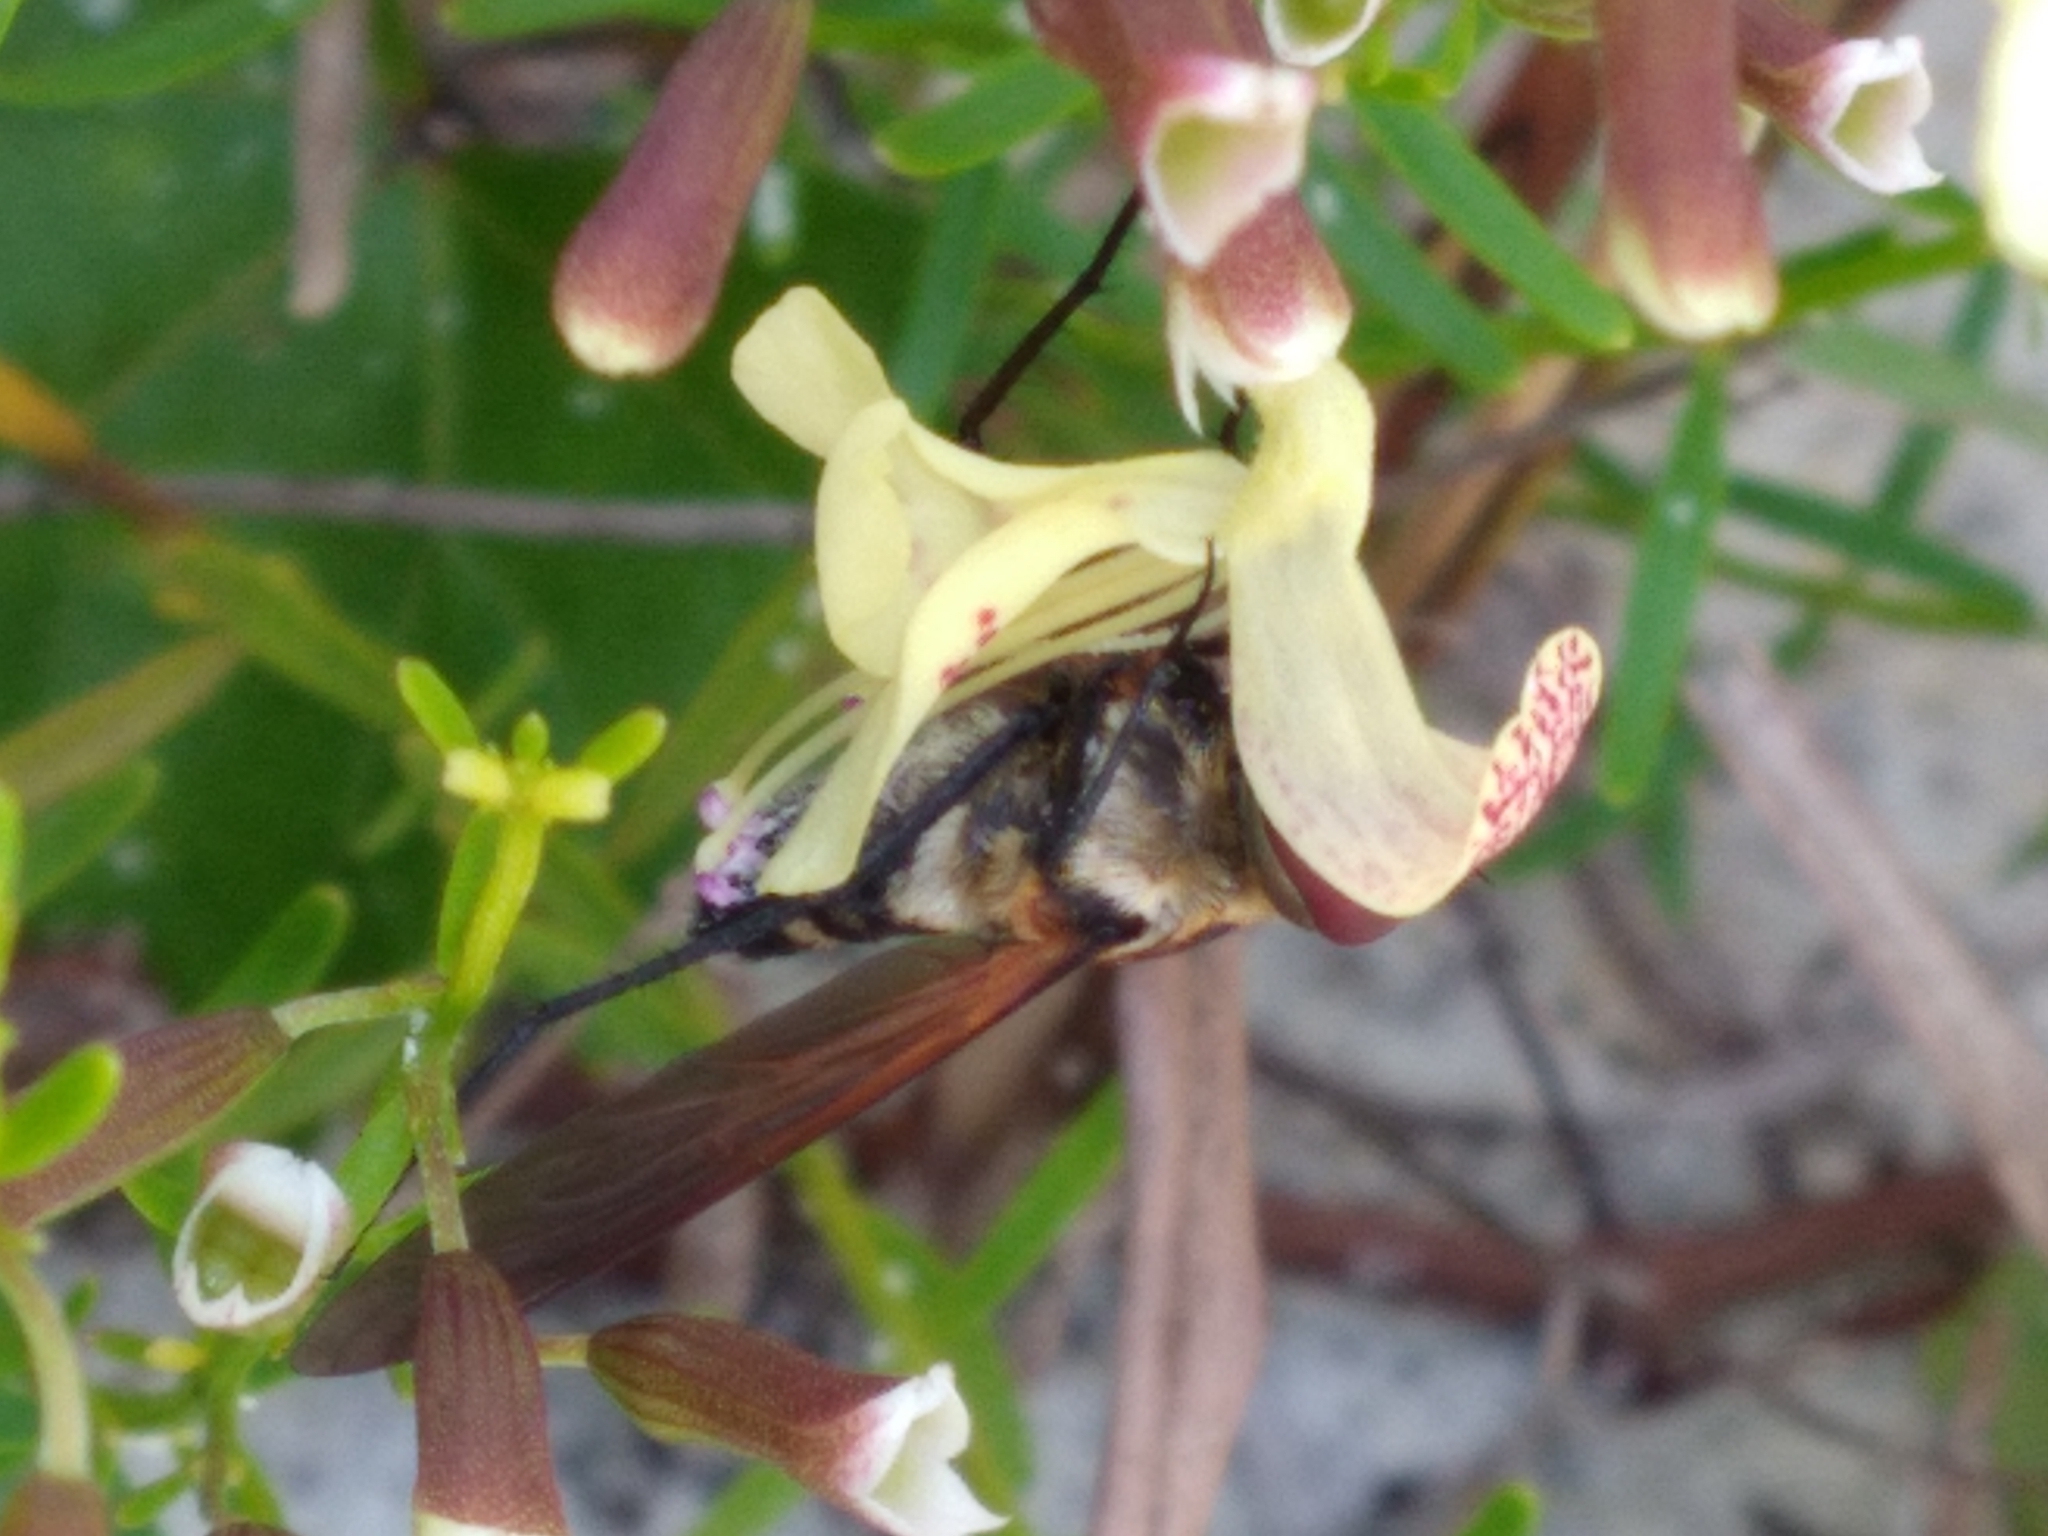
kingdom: Animalia
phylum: Arthropoda
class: Insecta
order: Diptera
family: Bombyliidae
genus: Exoprosopa
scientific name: Exoprosopa fasciata
